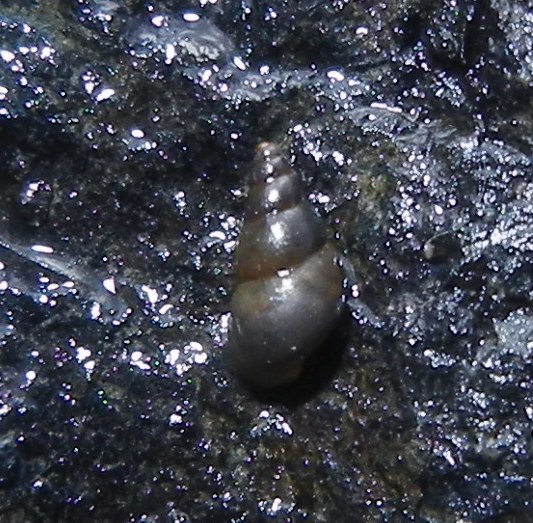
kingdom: Animalia
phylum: Mollusca
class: Gastropoda
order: Littorinimorpha
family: Tateidae
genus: Potamopyrgus
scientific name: Potamopyrgus antipodarum
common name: Jenkins' spire snail
